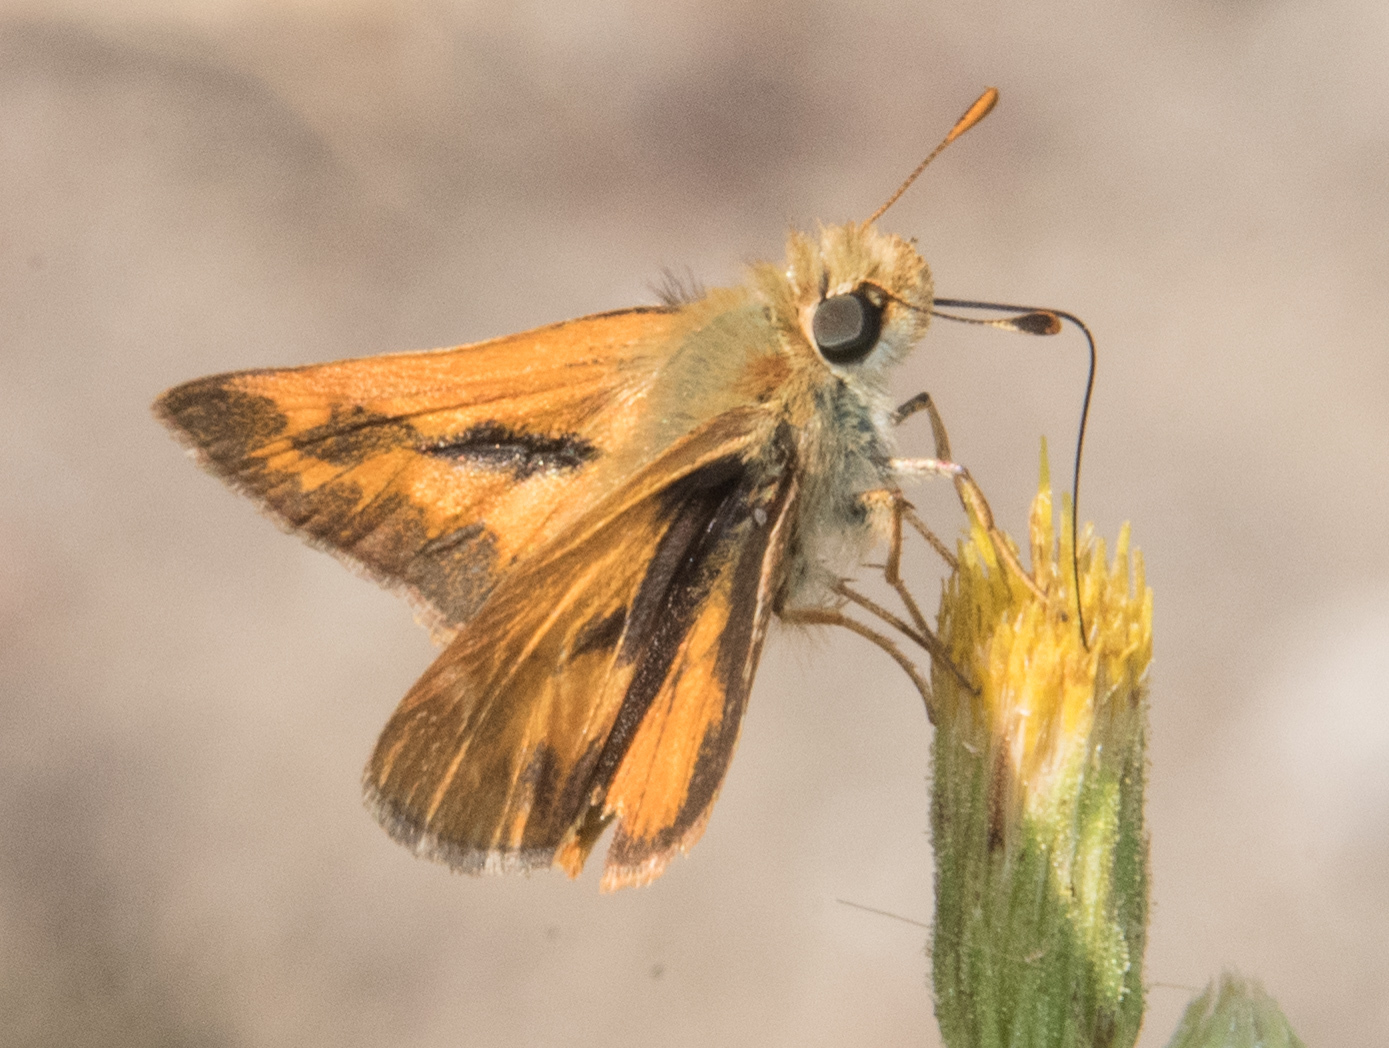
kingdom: Animalia
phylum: Arthropoda
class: Insecta
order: Lepidoptera
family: Hesperiidae
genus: Ochlodes
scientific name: Ochlodes sylvanoides
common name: Woodland skipper
